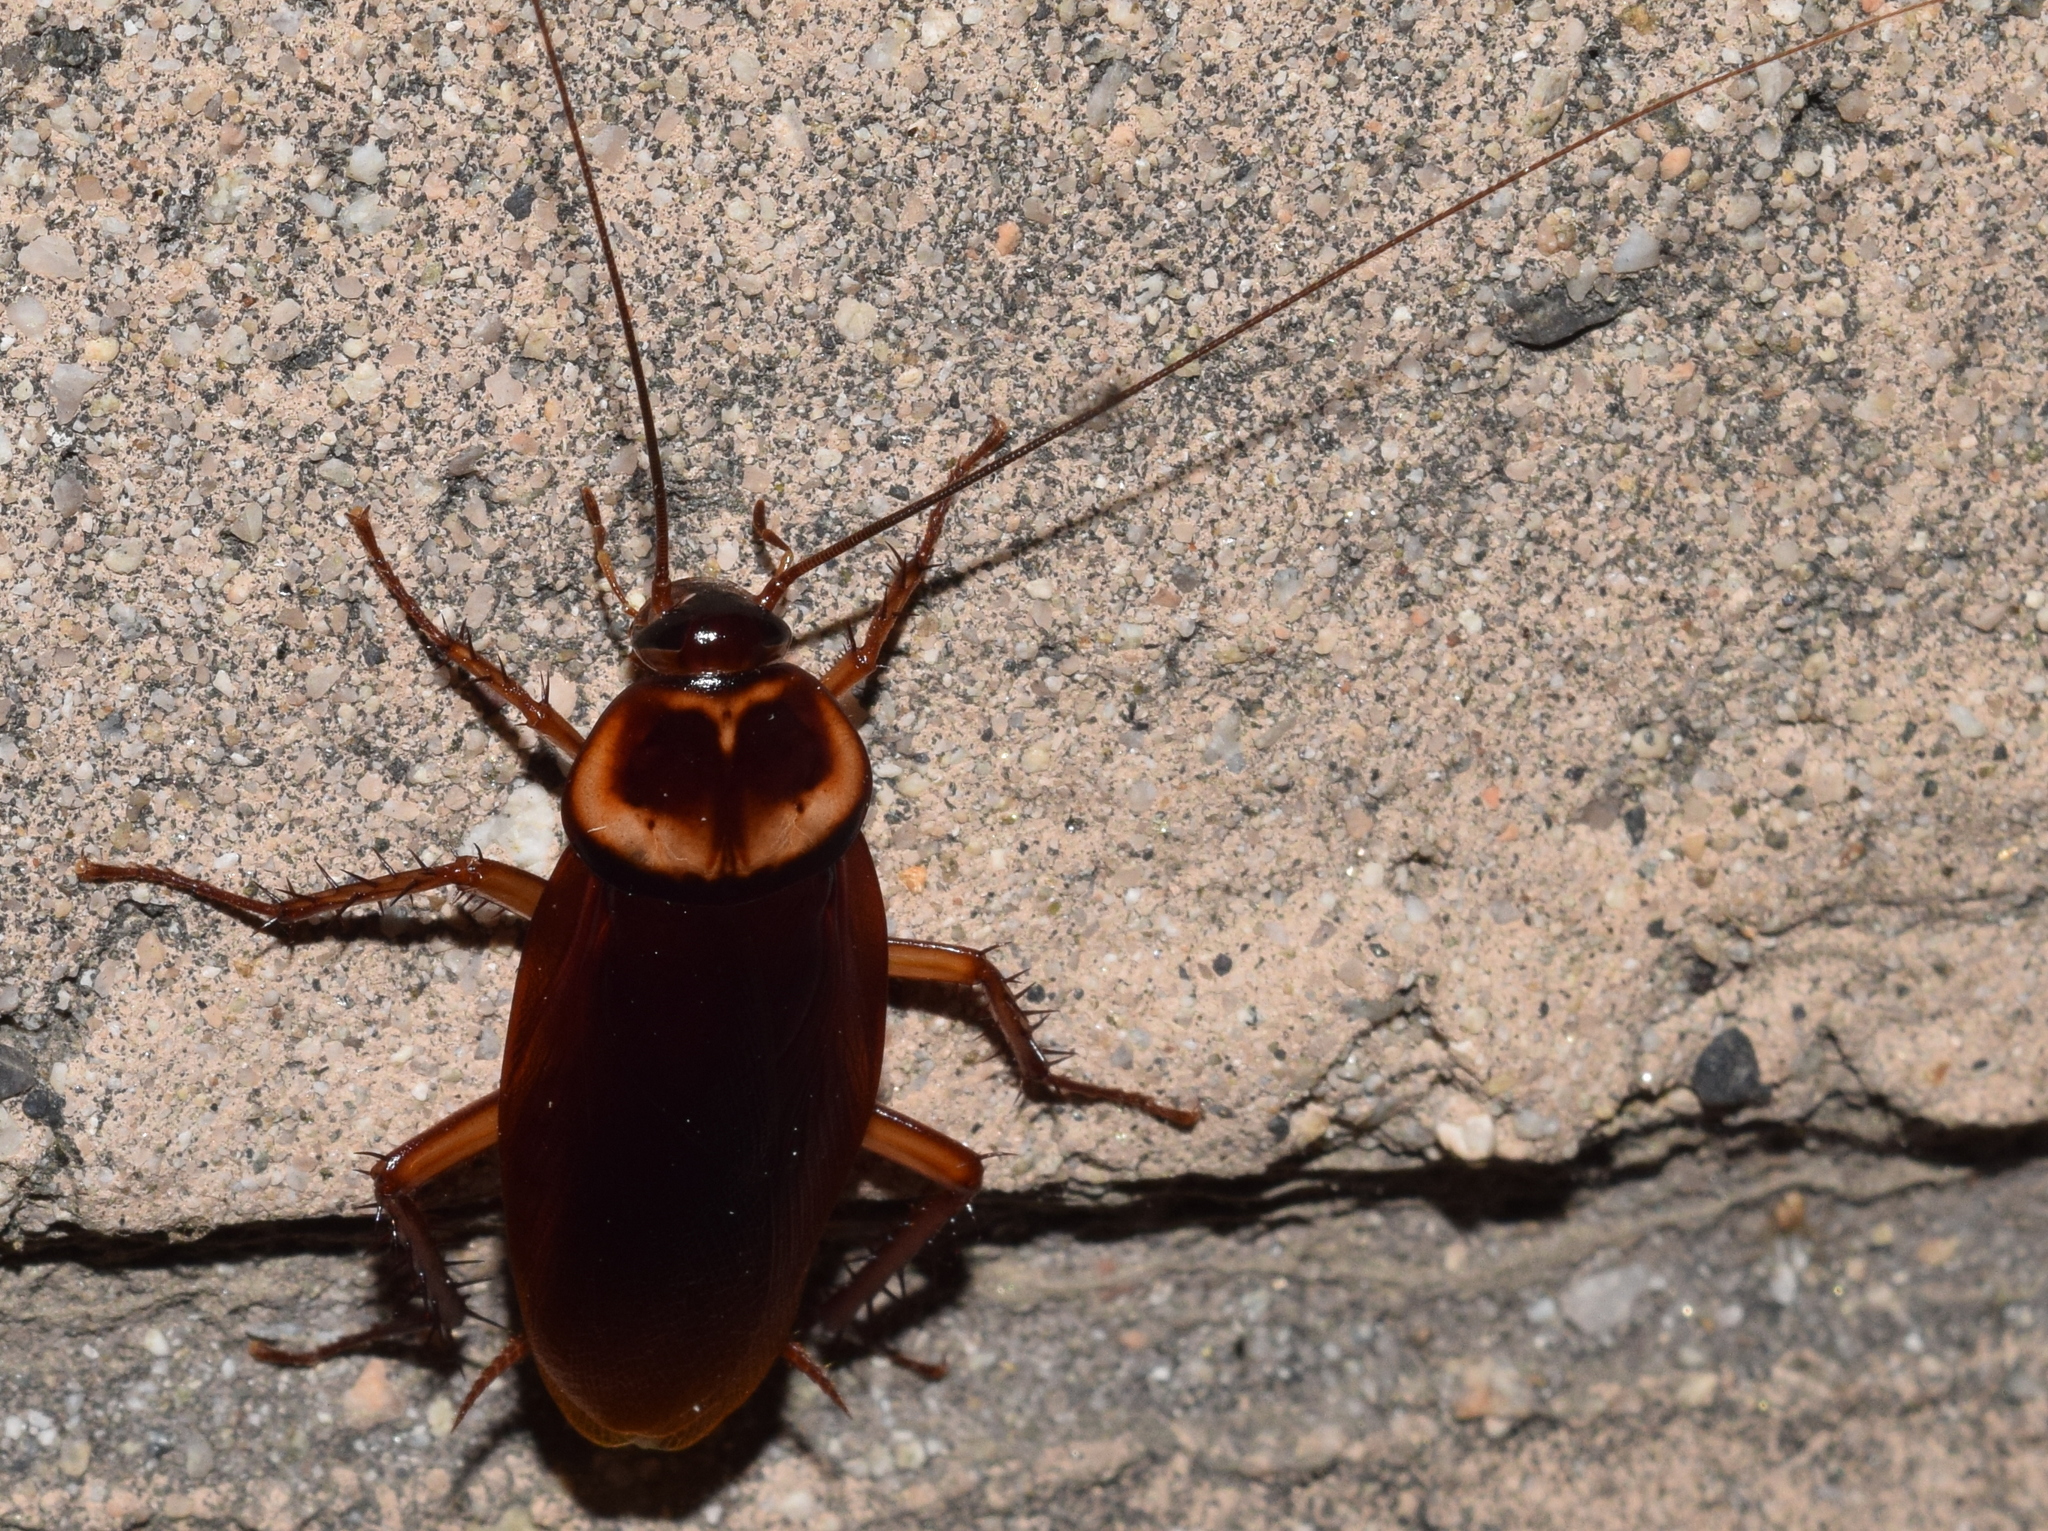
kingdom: Animalia
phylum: Arthropoda
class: Insecta
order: Blattodea
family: Blattidae
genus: Periplaneta
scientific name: Periplaneta americana
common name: American cockroach
